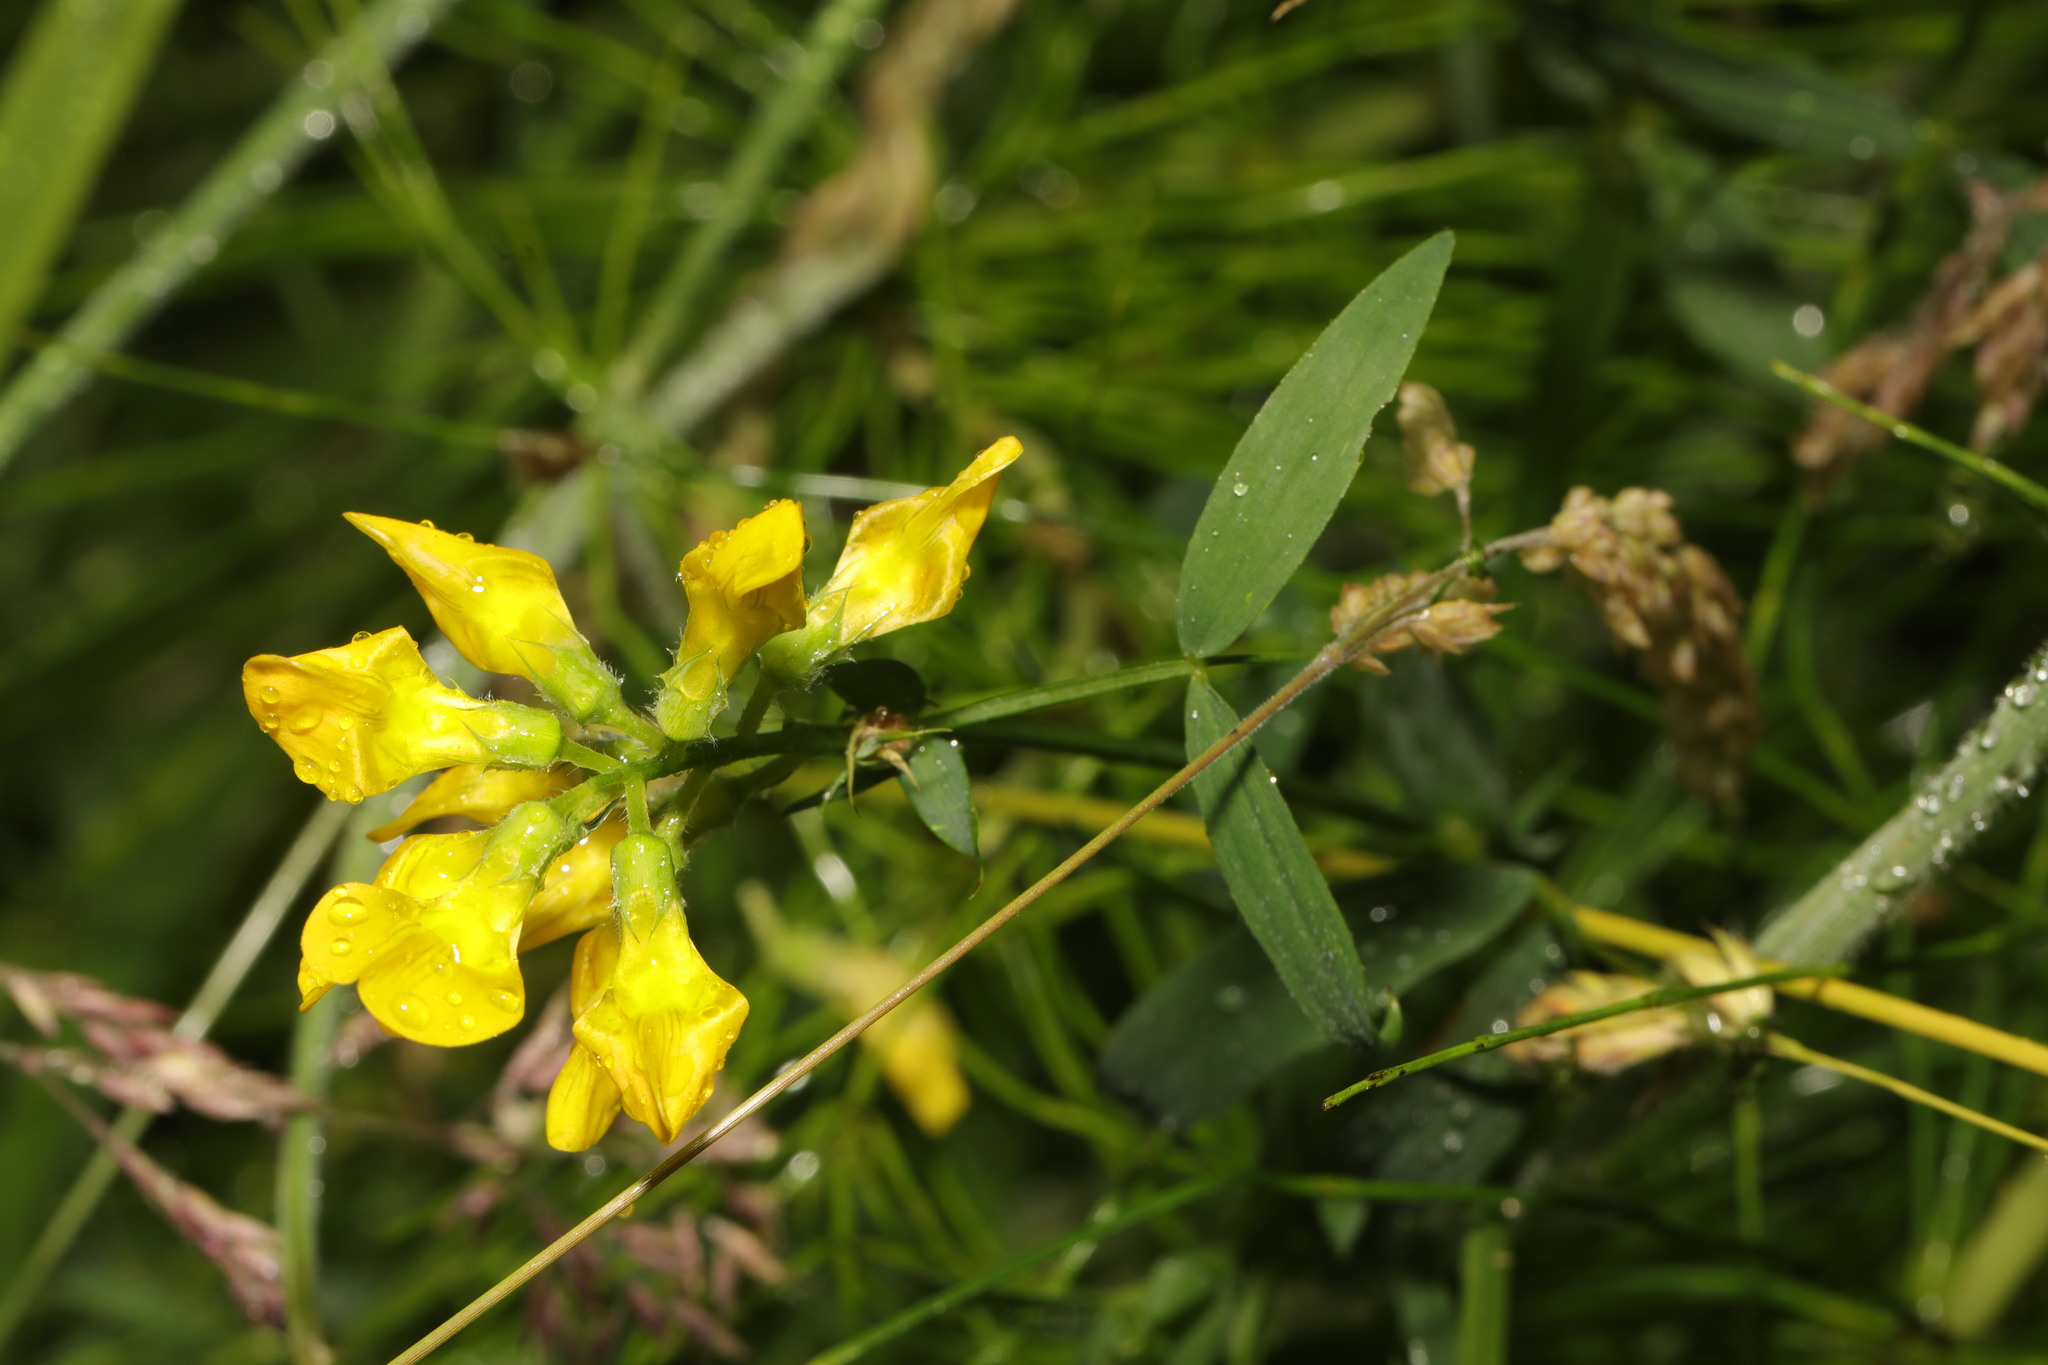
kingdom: Plantae
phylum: Tracheophyta
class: Magnoliopsida
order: Fabales
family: Fabaceae
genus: Lathyrus
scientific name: Lathyrus pratensis
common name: Meadow vetchling
